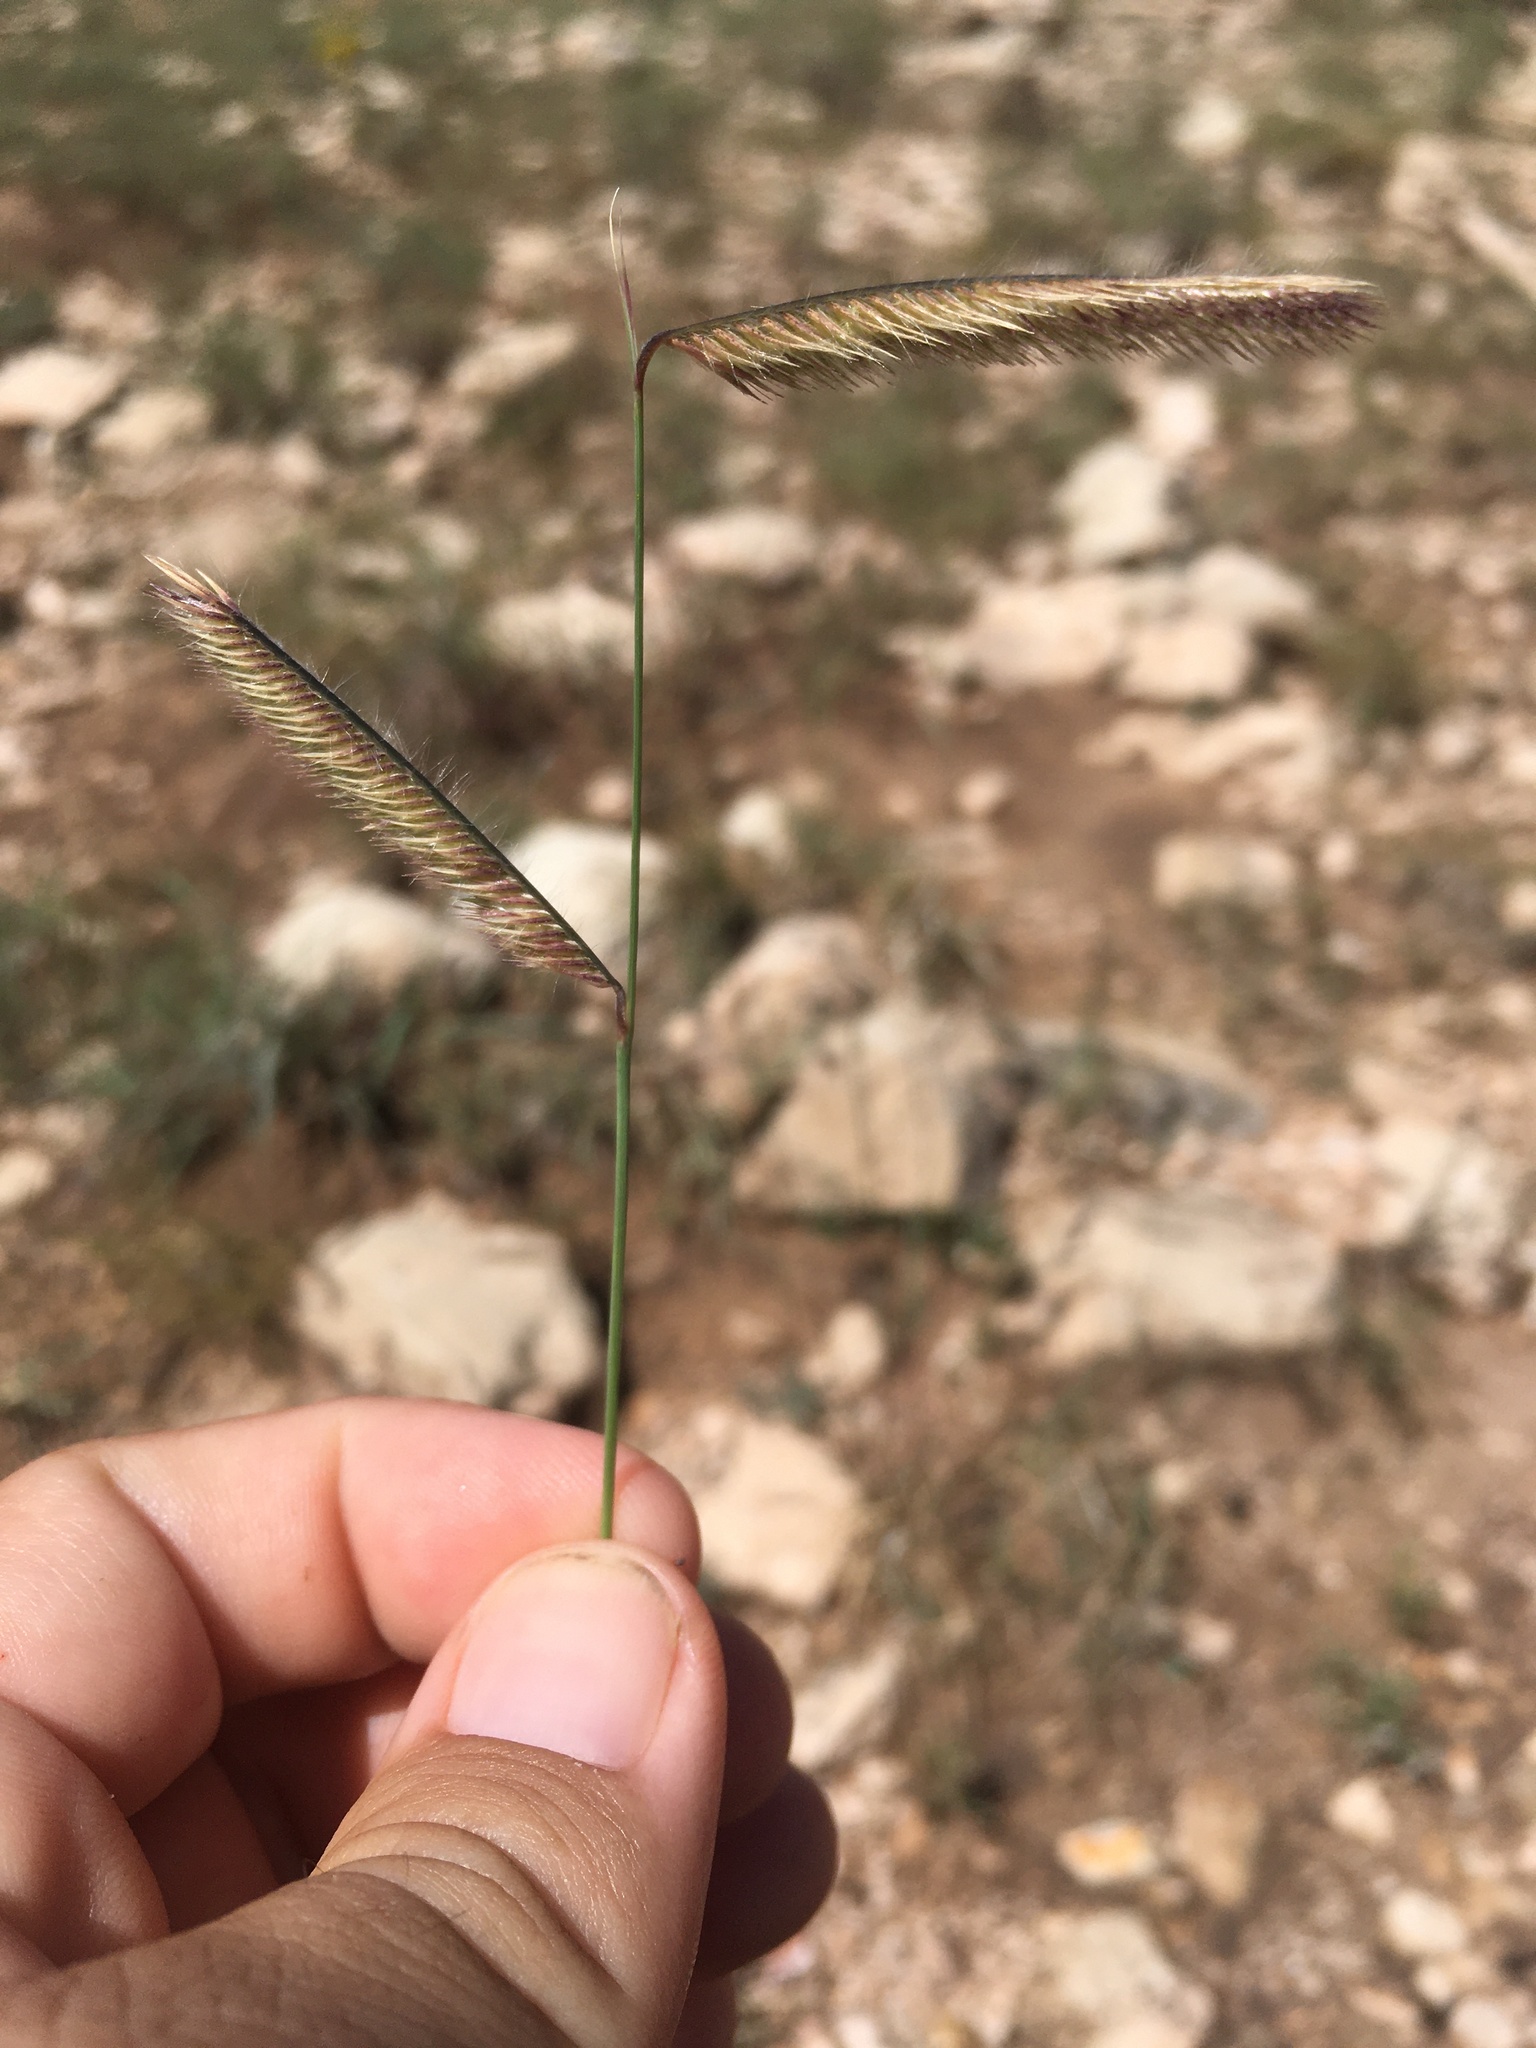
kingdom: Plantae
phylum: Tracheophyta
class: Liliopsida
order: Poales
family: Poaceae
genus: Bouteloua
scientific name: Bouteloua gracilis
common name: Blue grama
